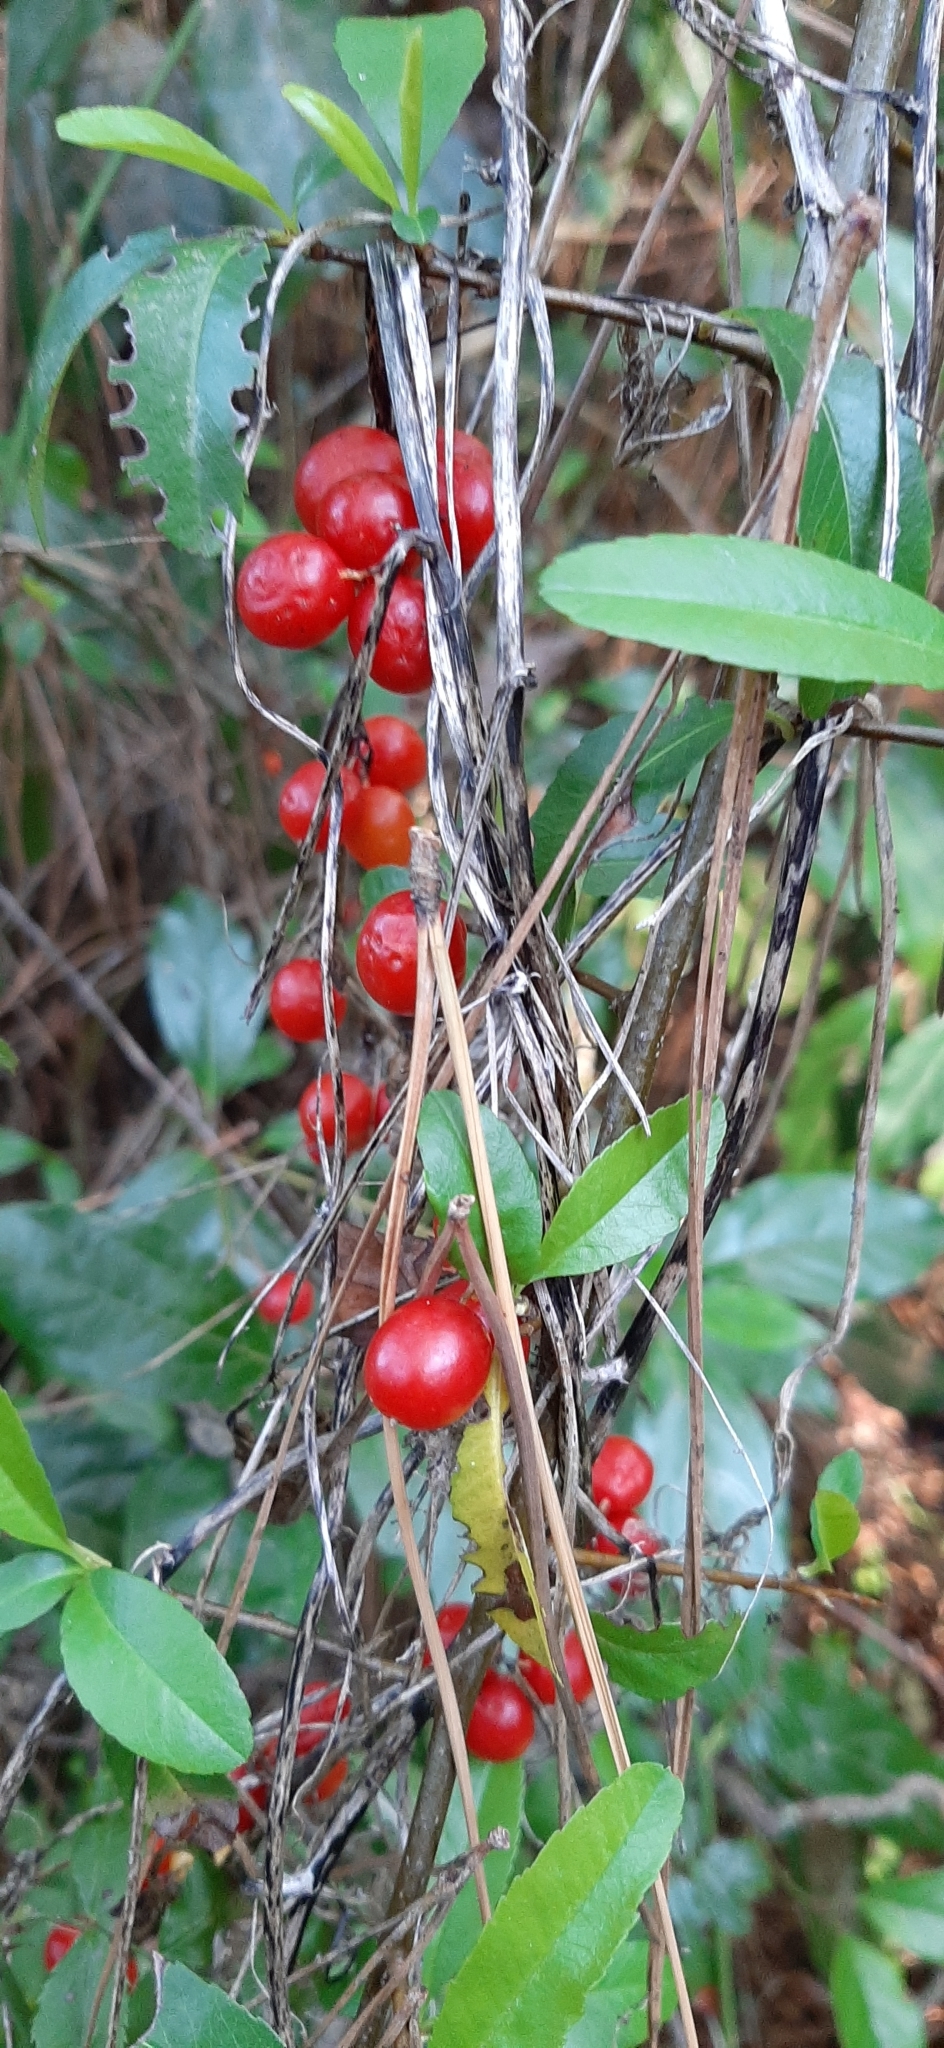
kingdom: Plantae
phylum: Tracheophyta
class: Liliopsida
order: Dioscoreales
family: Dioscoreaceae
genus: Dioscorea
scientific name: Dioscorea communis
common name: Black-bindweed
